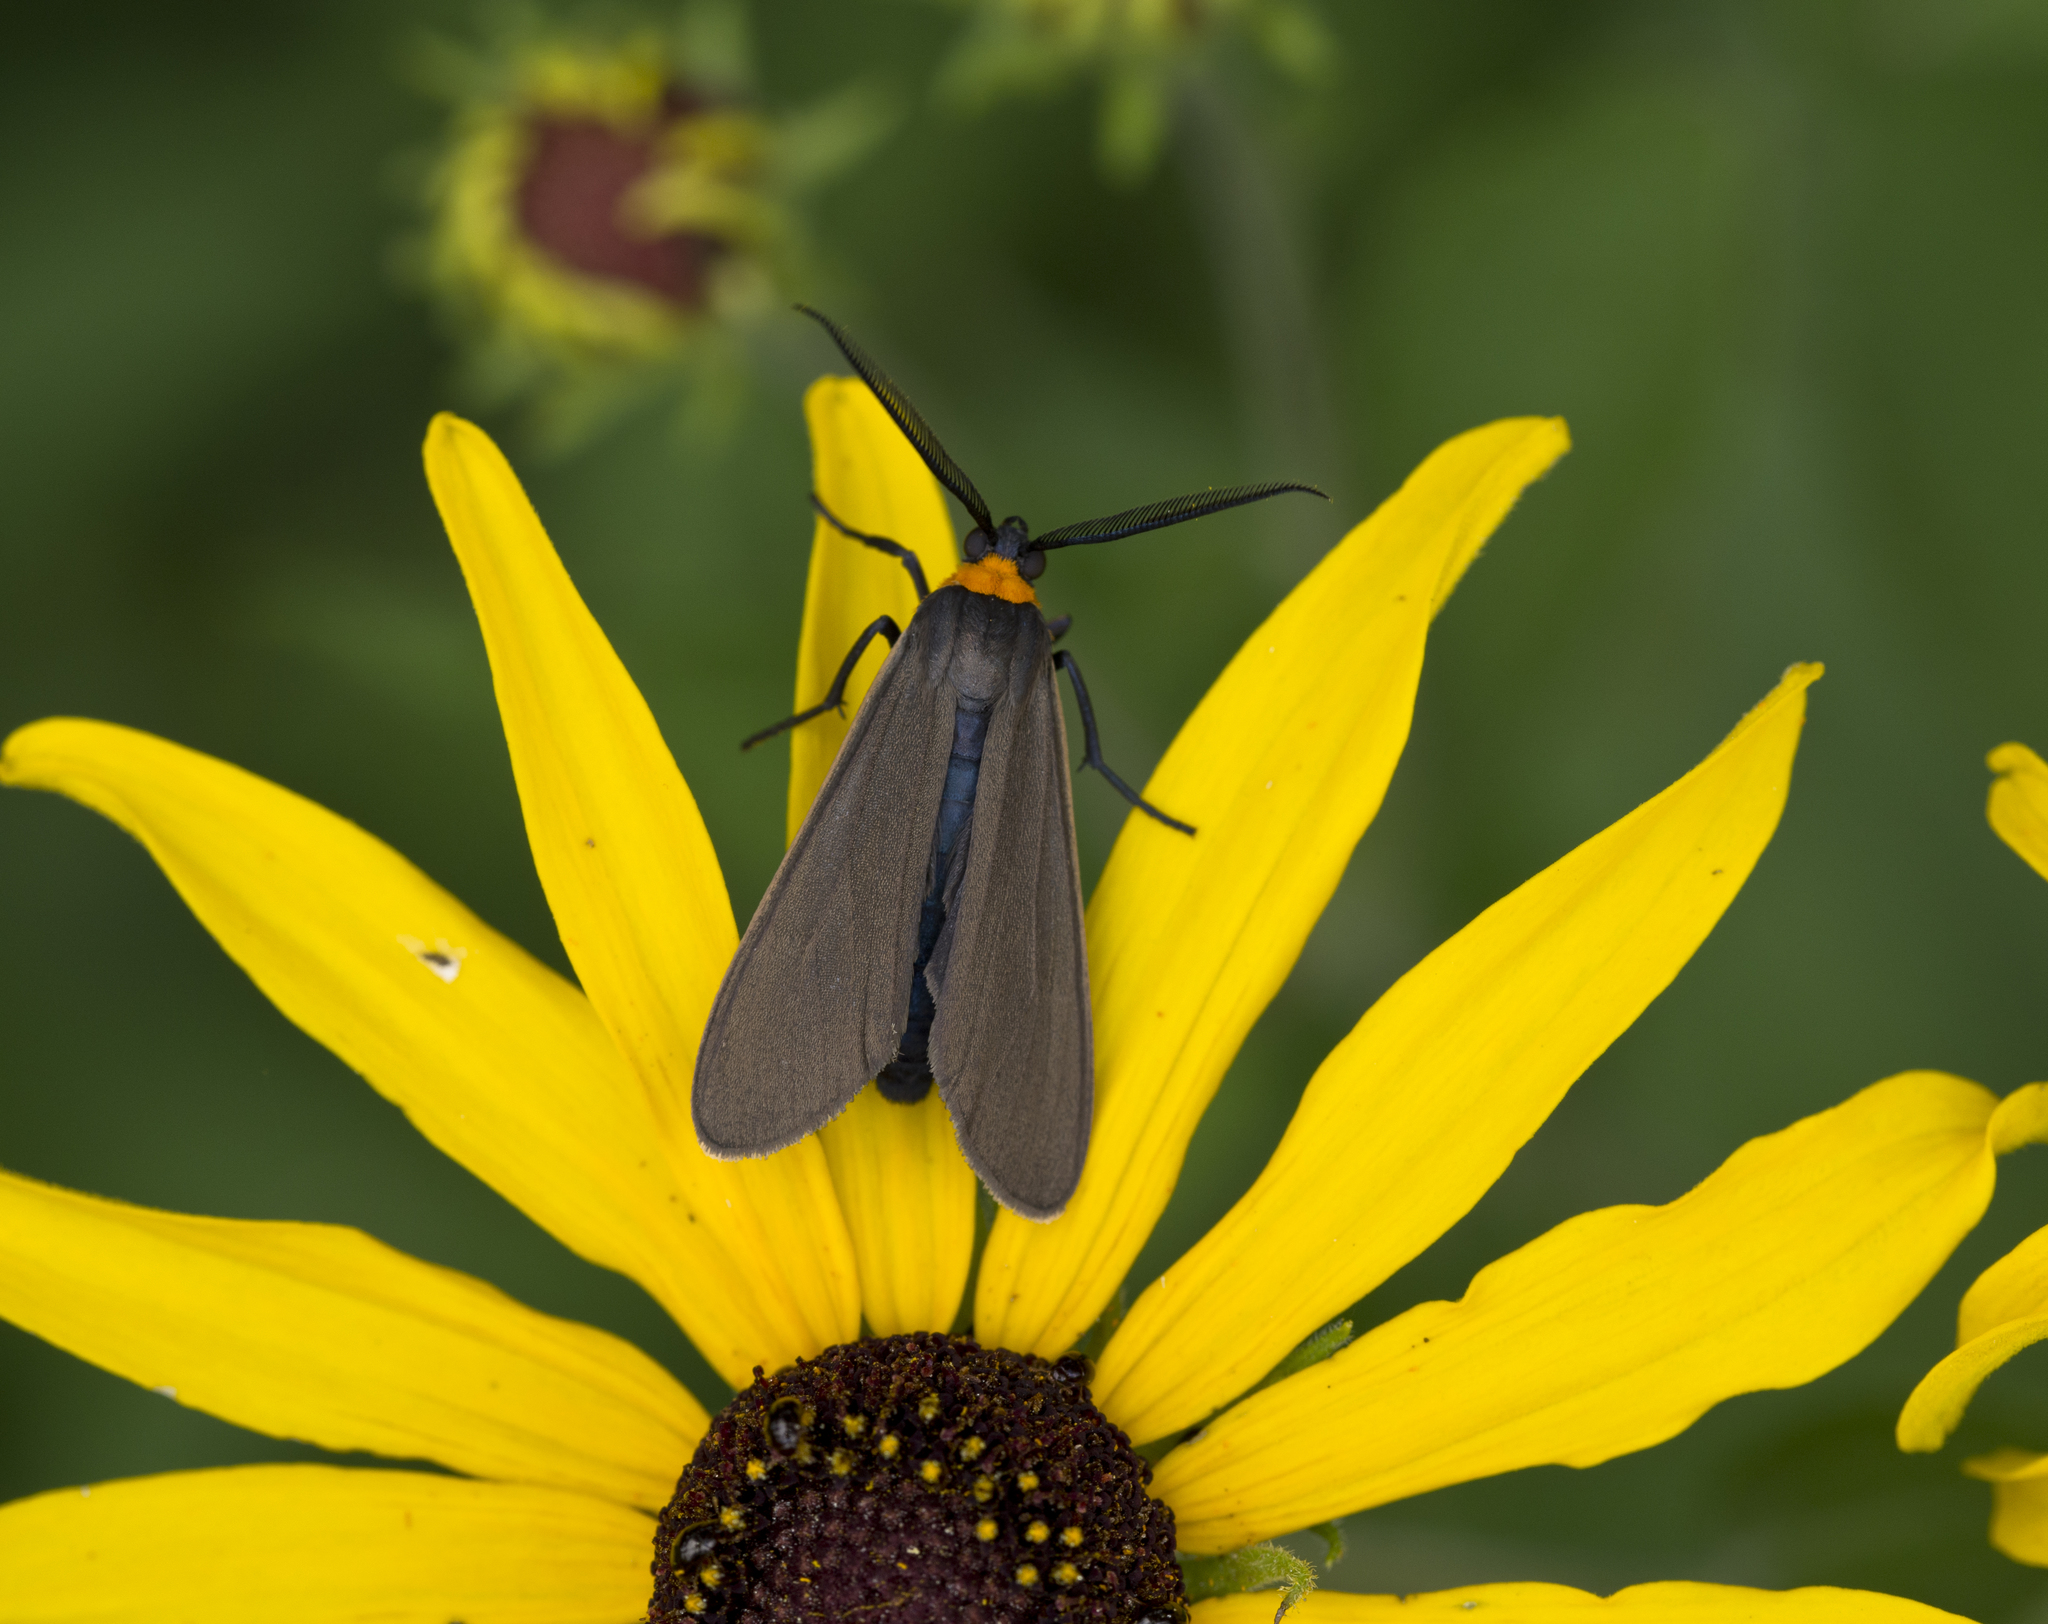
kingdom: Animalia
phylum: Arthropoda
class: Insecta
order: Lepidoptera
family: Erebidae
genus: Cisseps
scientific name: Cisseps fulvicollis
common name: Yellow-collared scape moth
